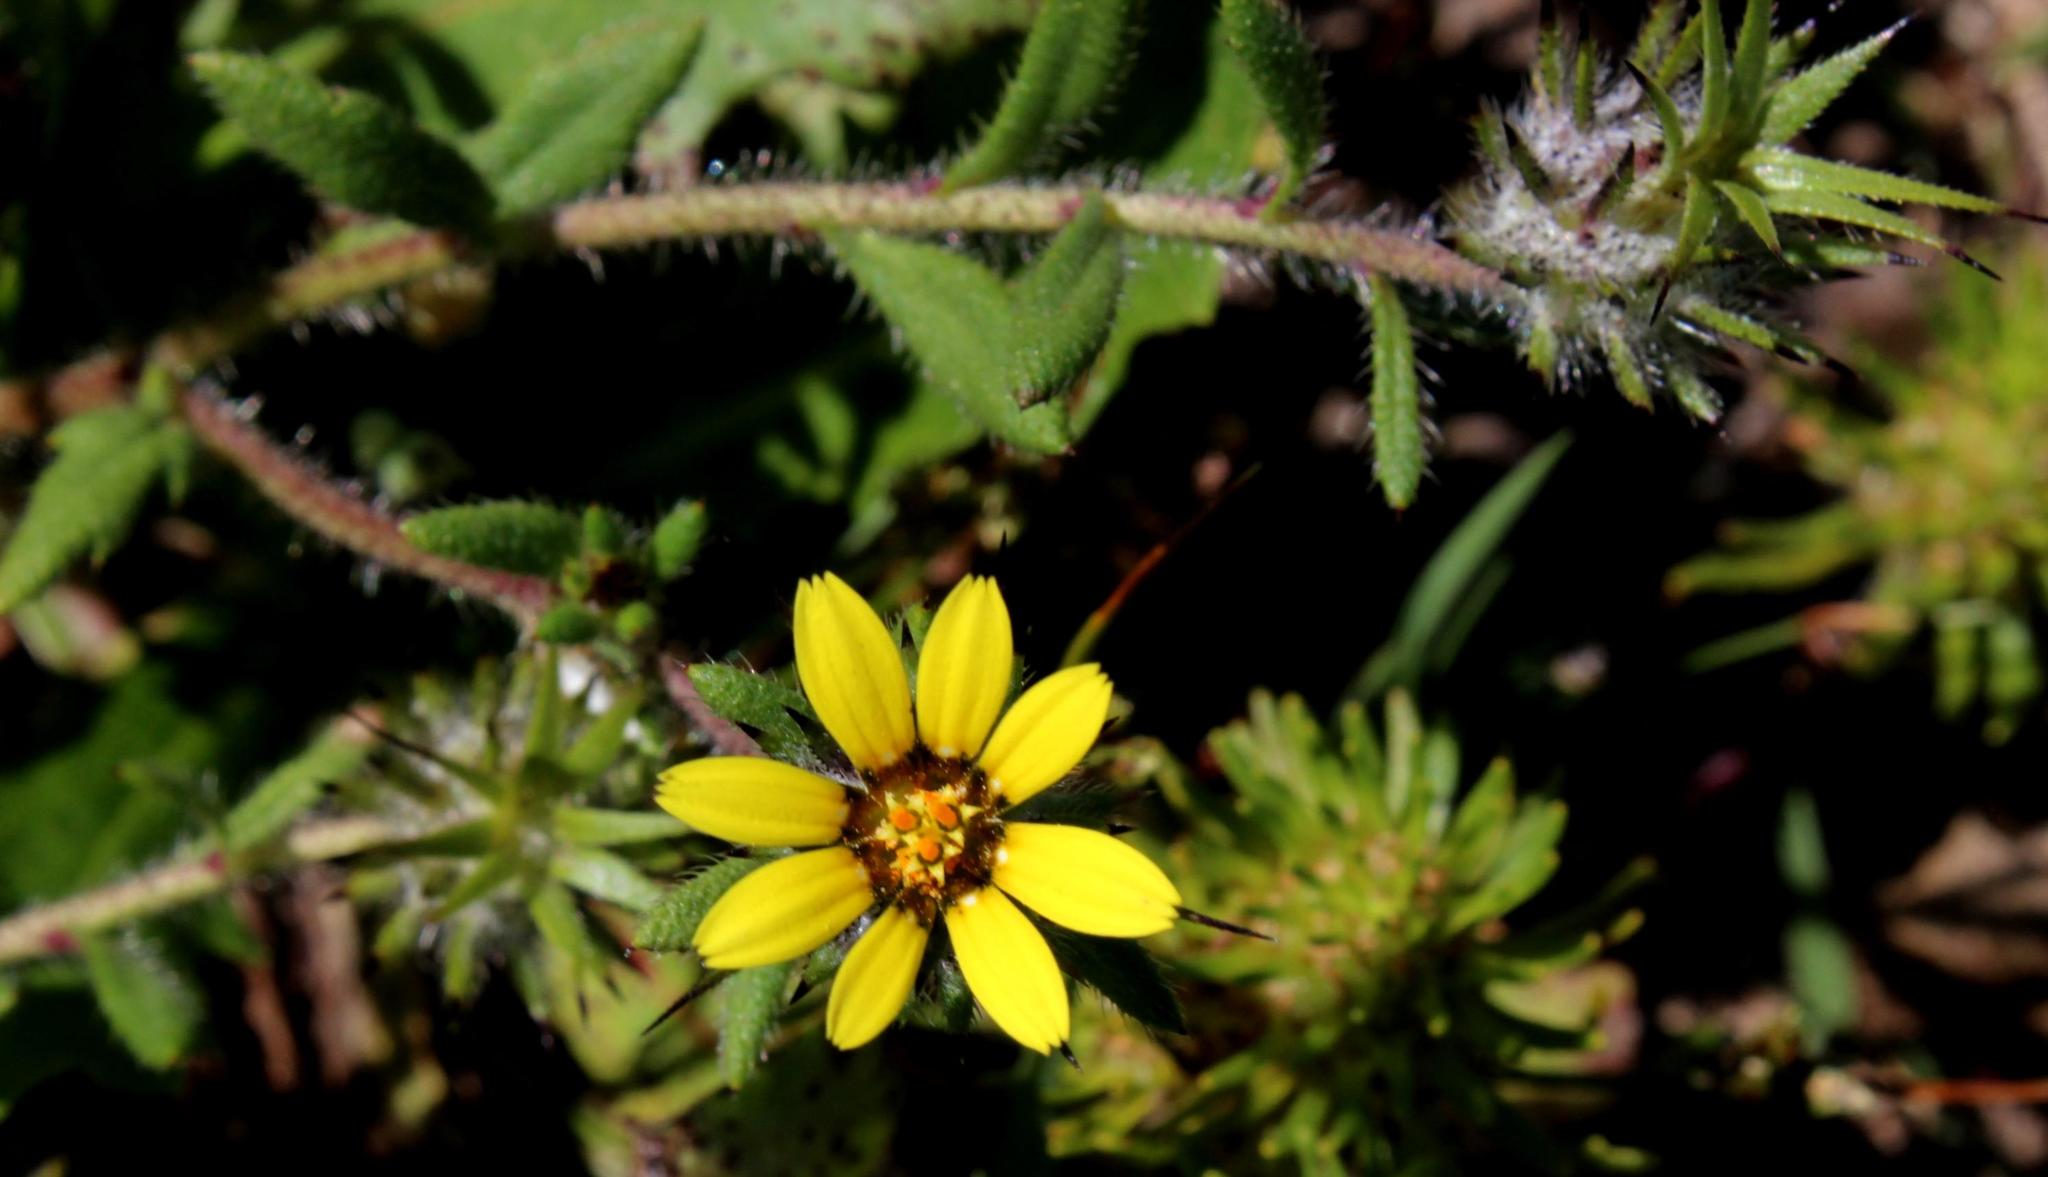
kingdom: Plantae
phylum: Tracheophyta
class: Magnoliopsida
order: Asterales
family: Asteraceae
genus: Gorteria
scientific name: Gorteria personata
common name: Gorteria
